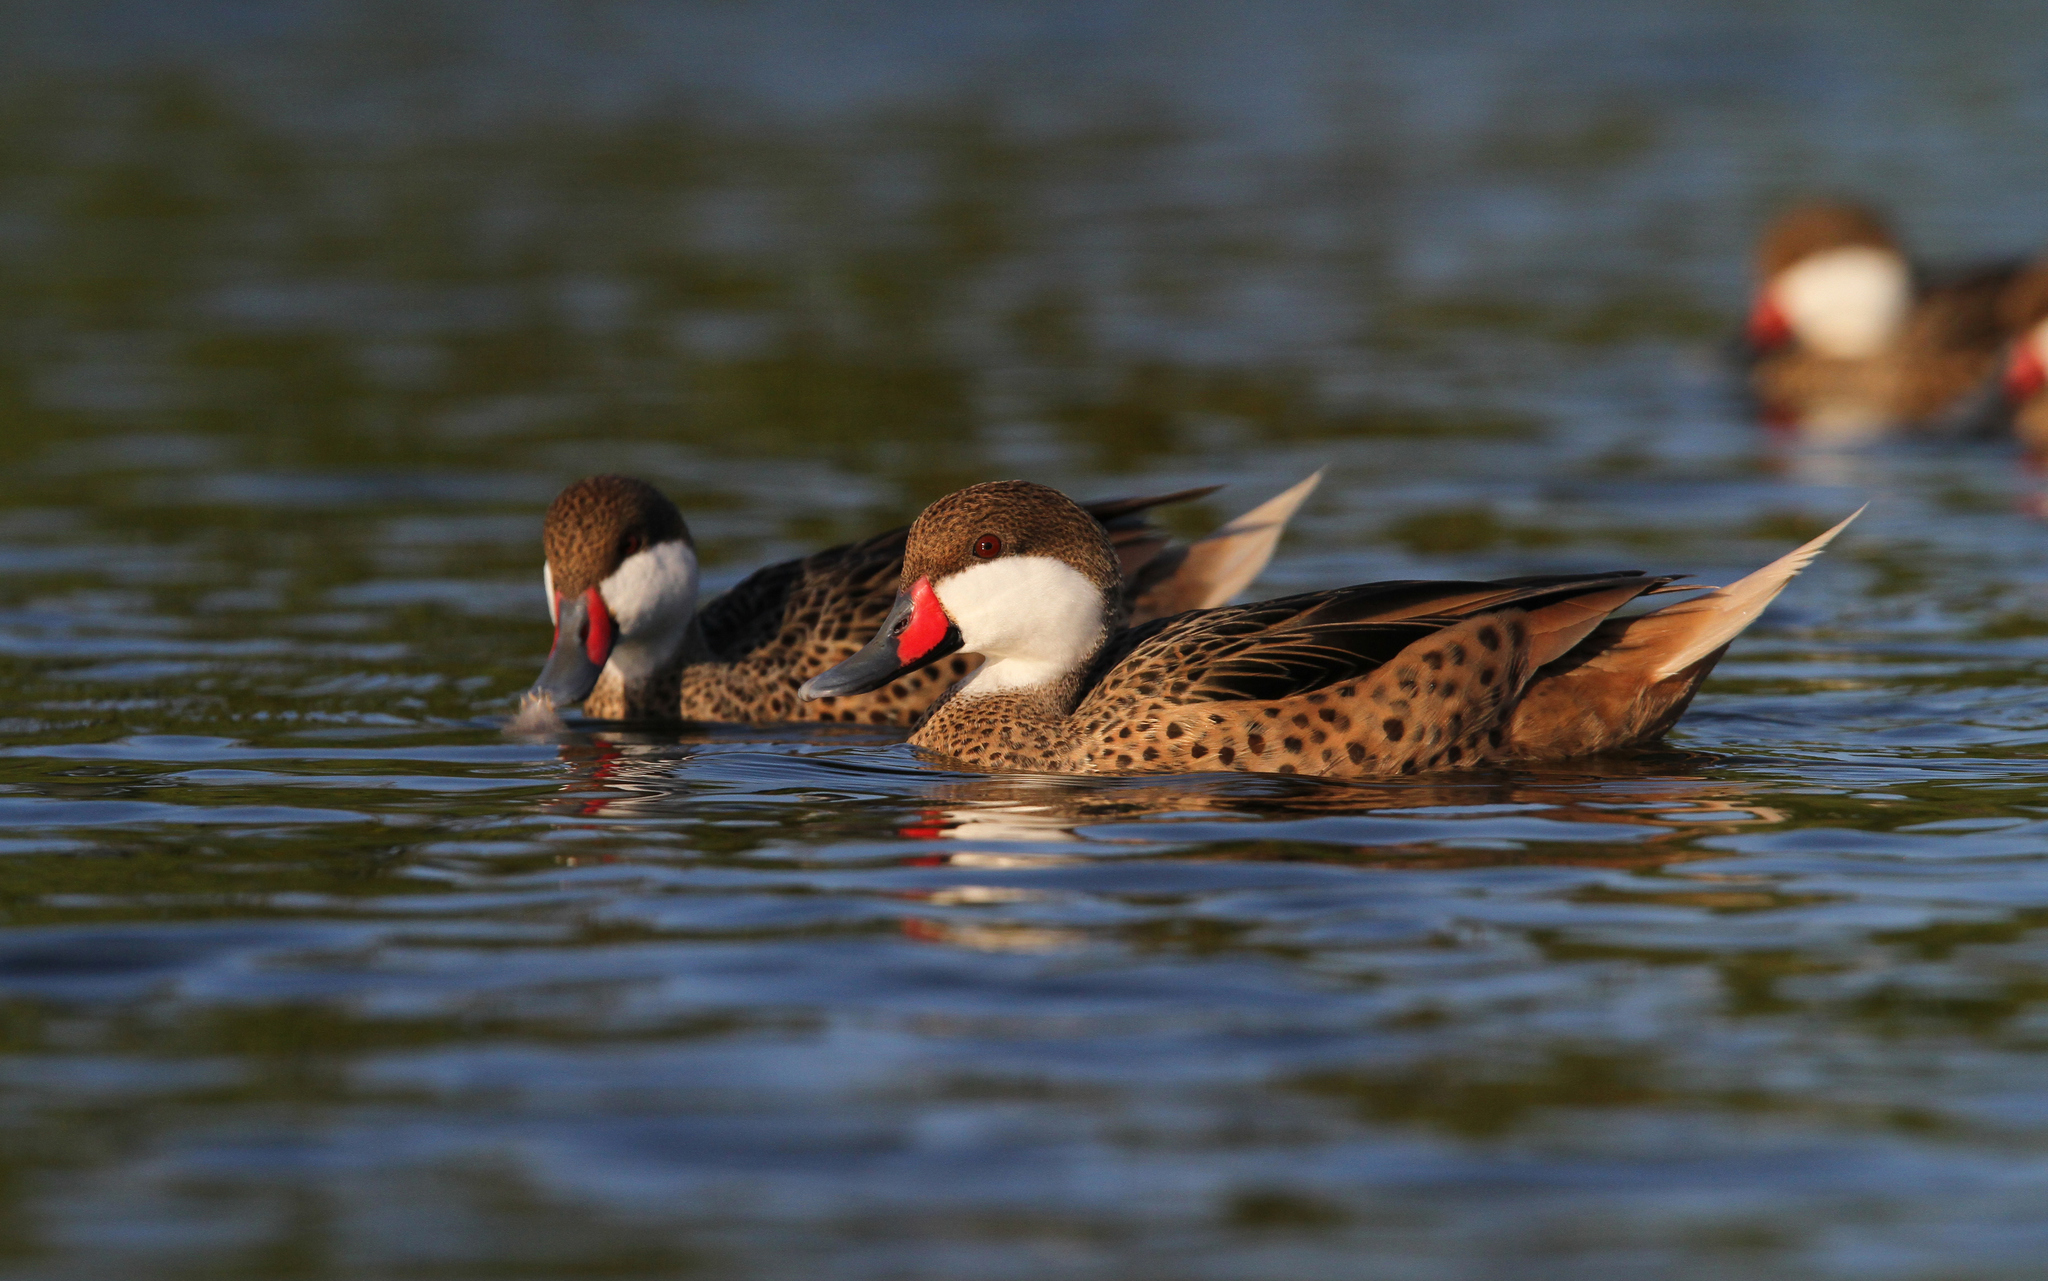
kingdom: Animalia
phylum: Chordata
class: Aves
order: Anseriformes
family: Anatidae
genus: Anas
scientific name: Anas bahamensis
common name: White-cheeked pintail
